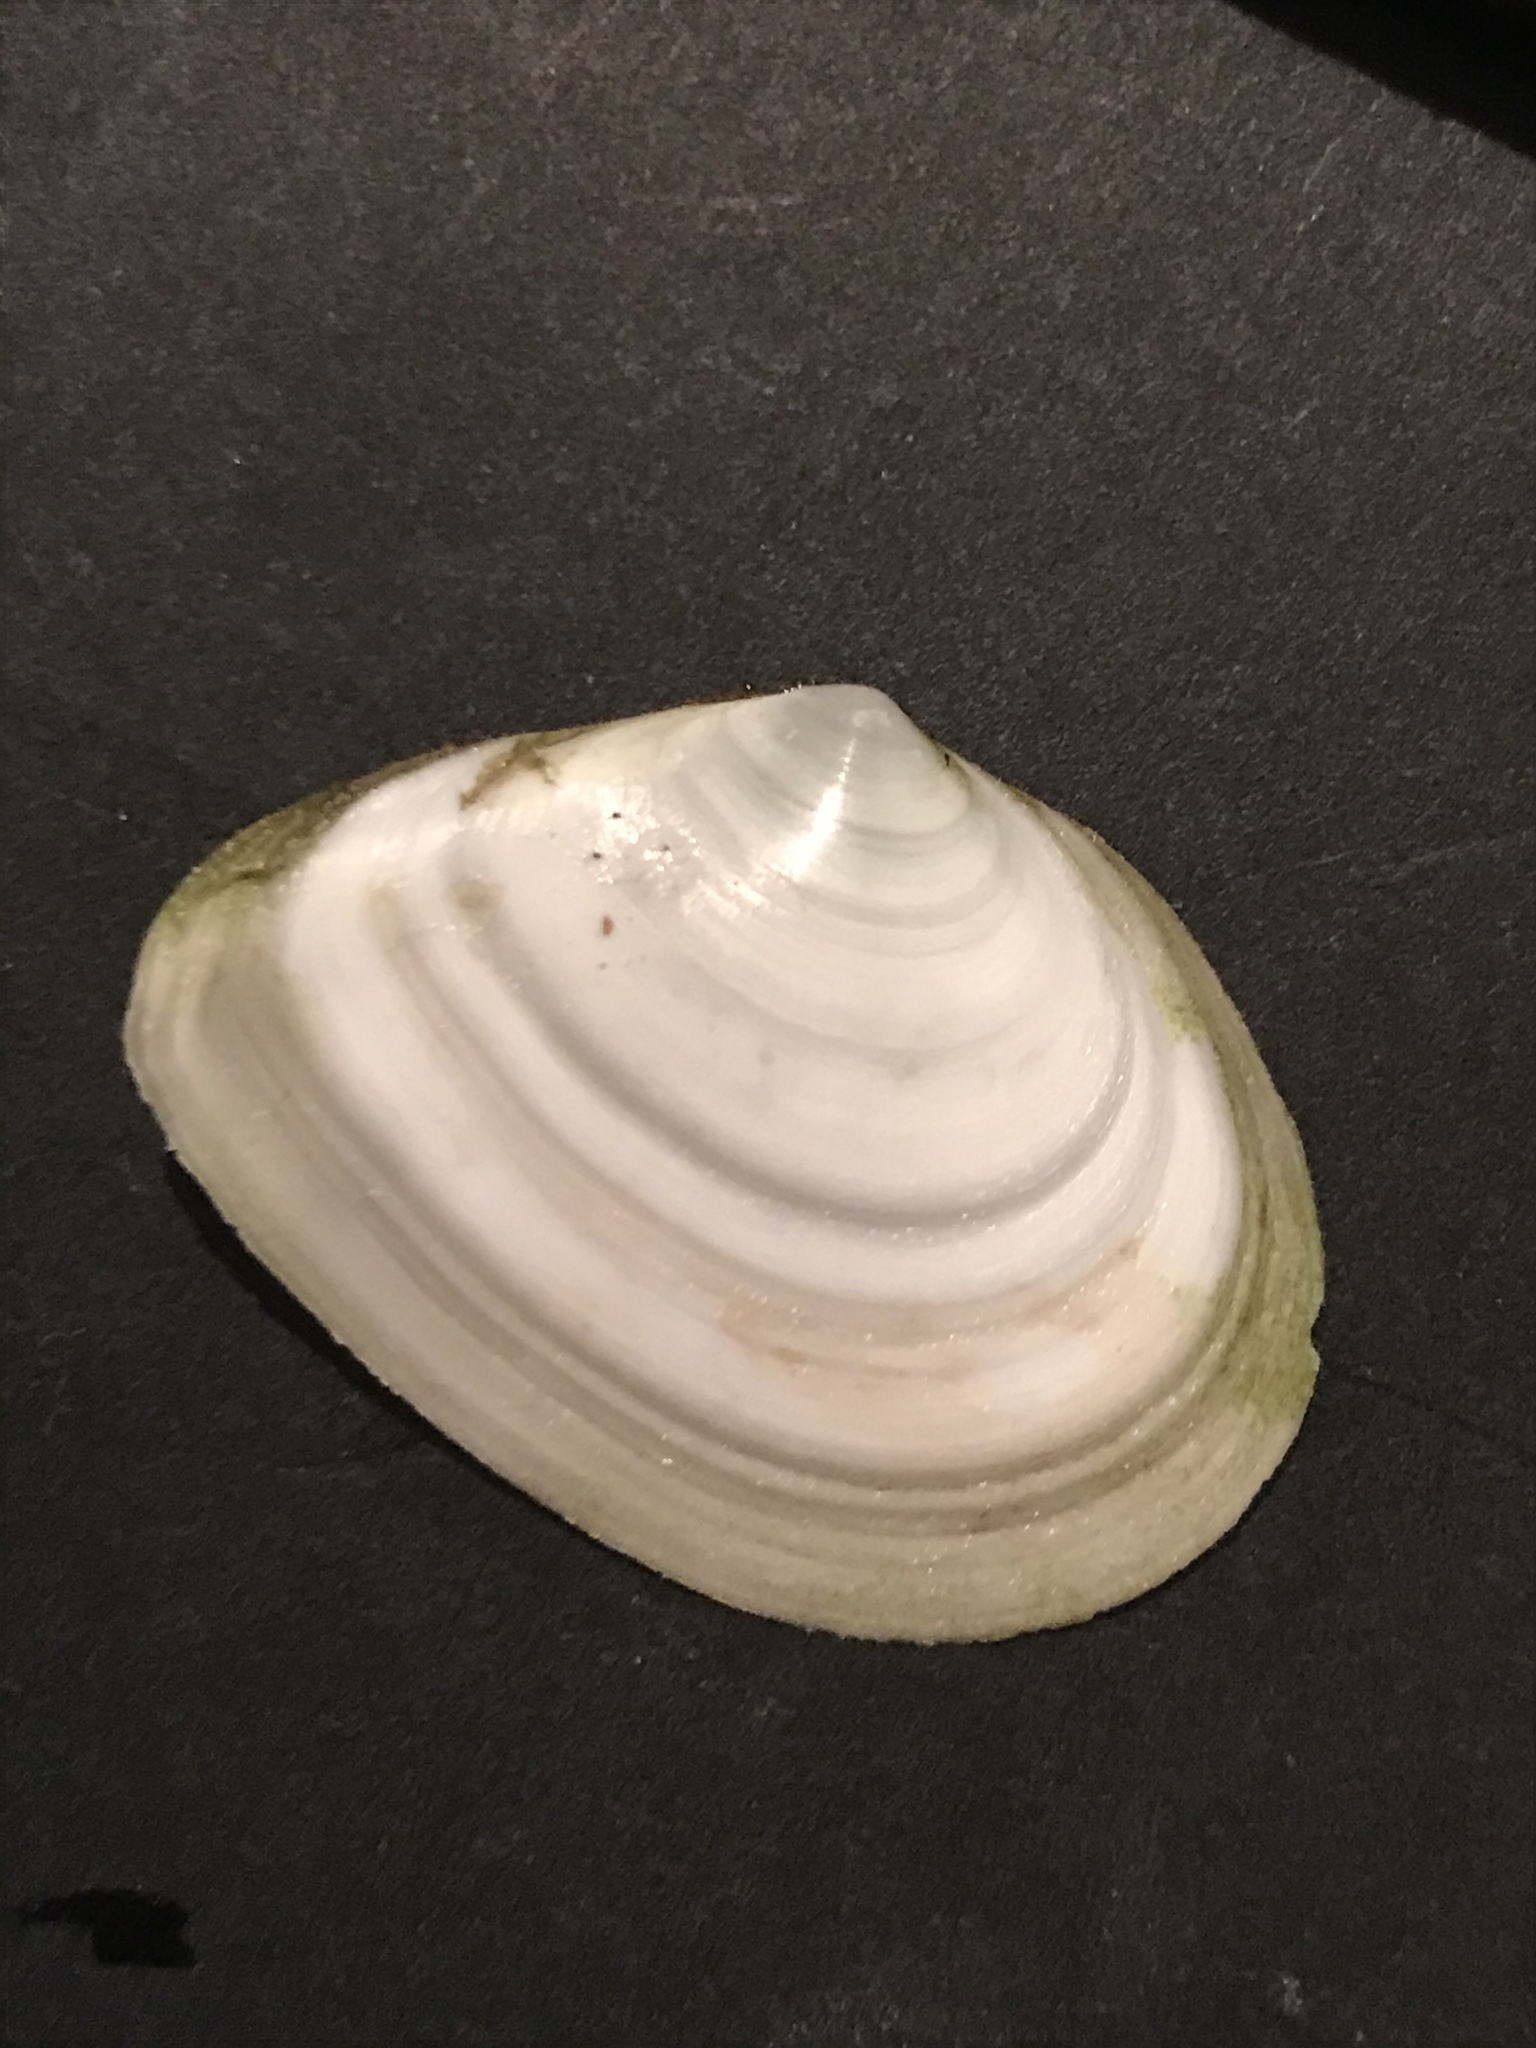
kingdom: Animalia
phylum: Mollusca
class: Bivalvia
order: Cardiida
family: Tellinidae
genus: Macoma
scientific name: Macoma nasuta
